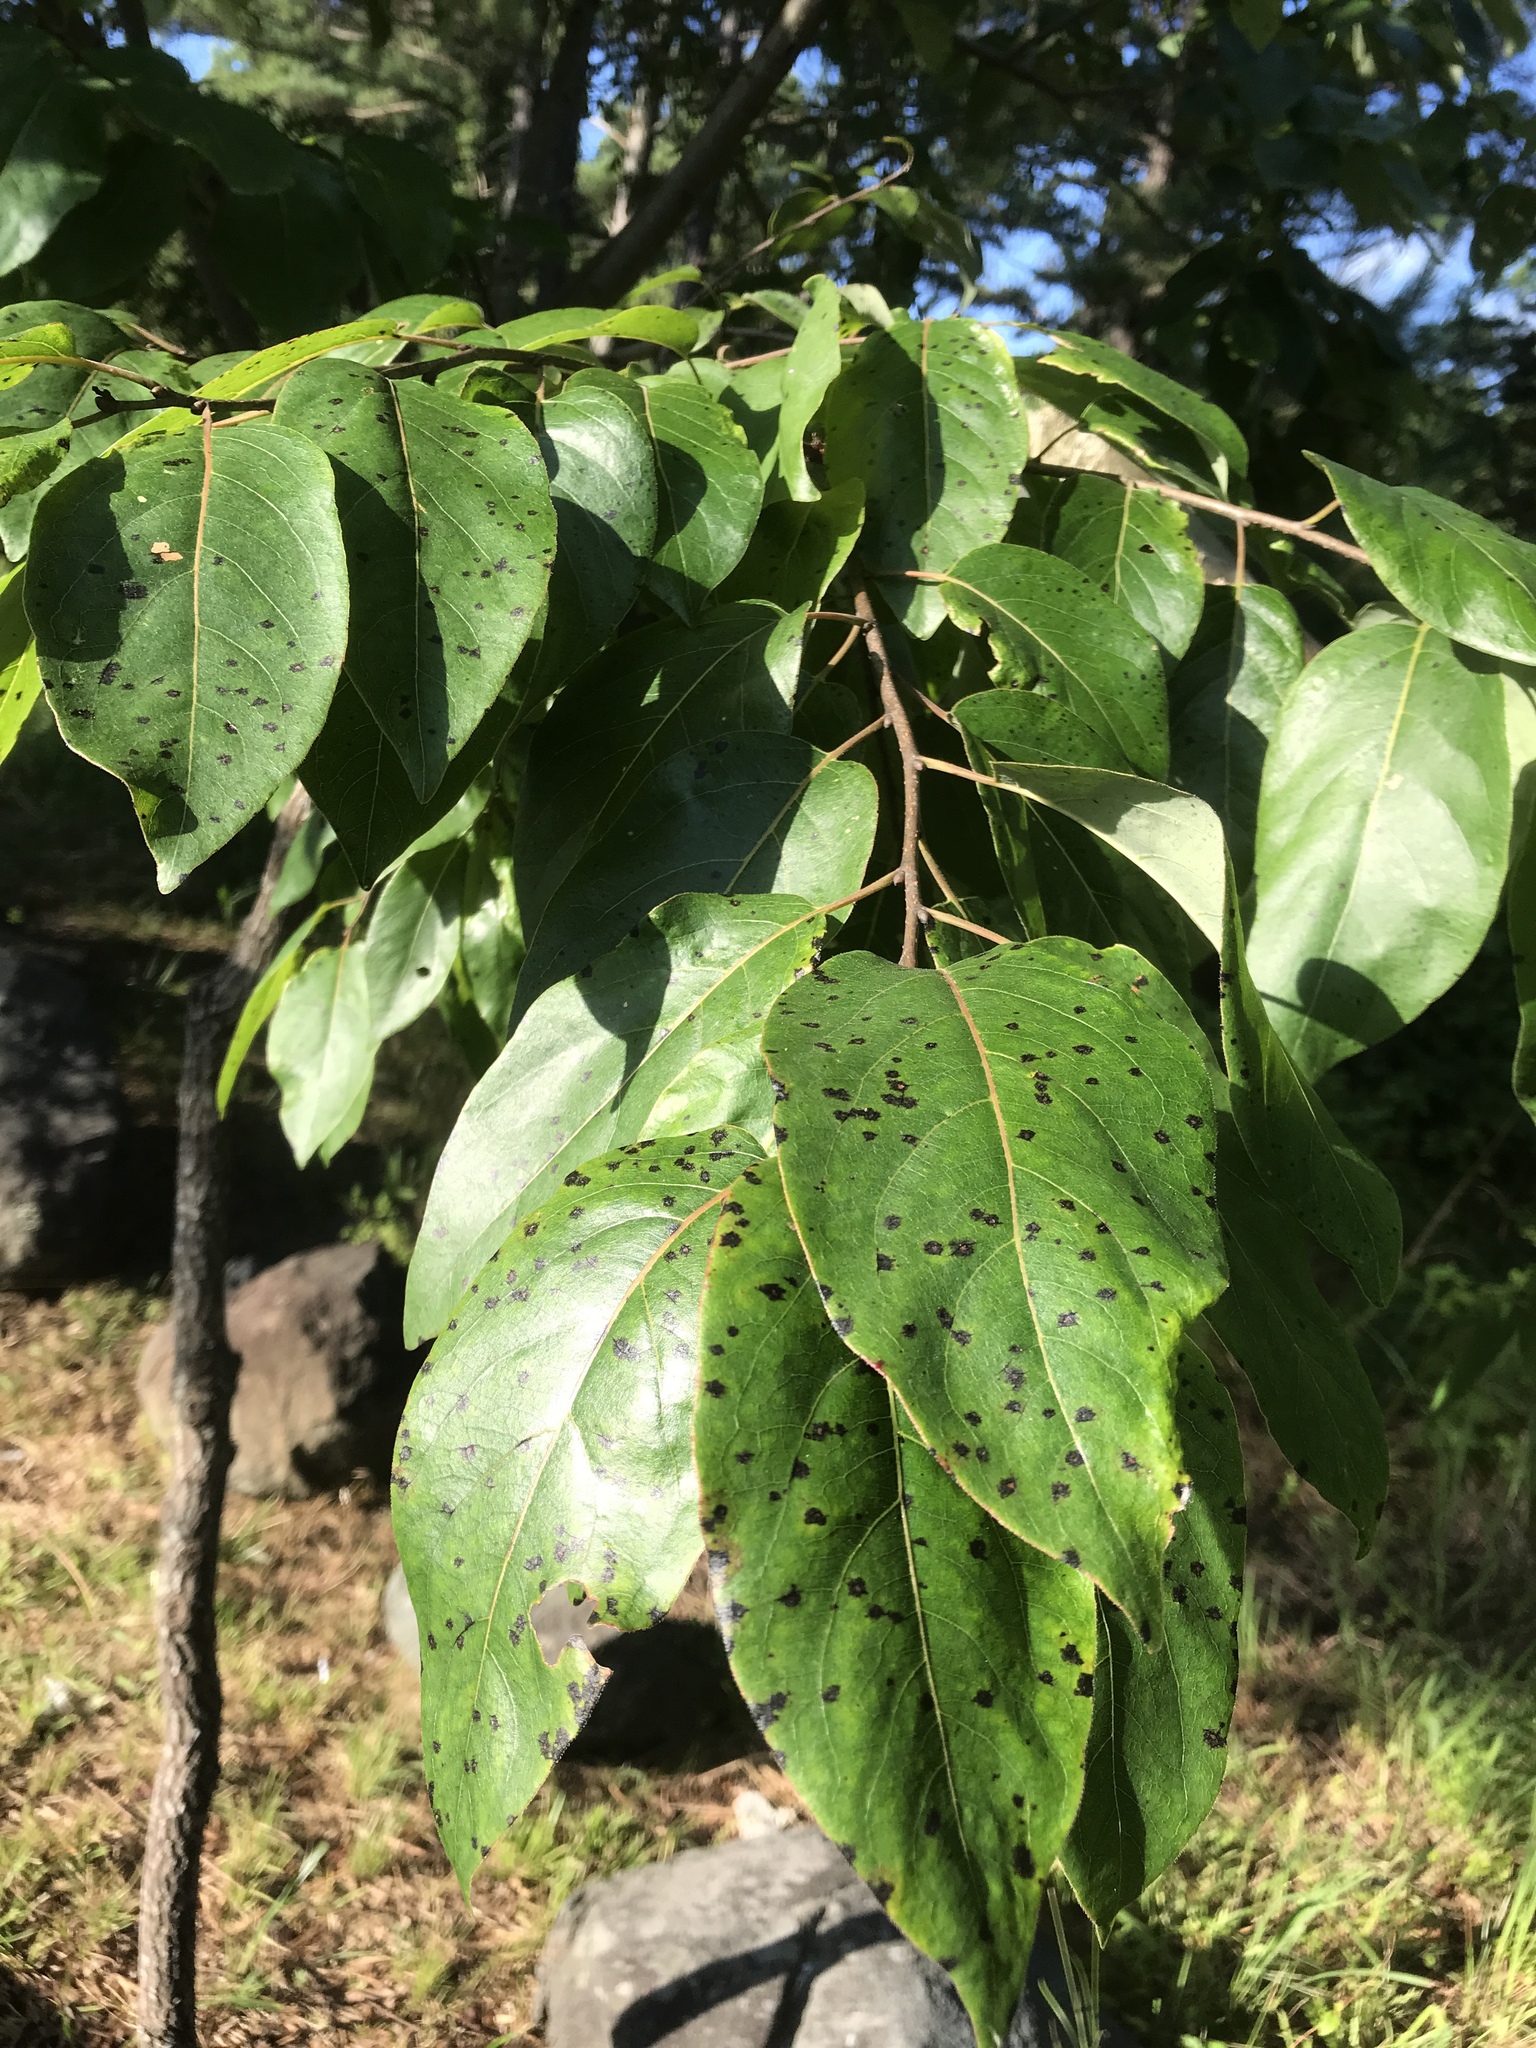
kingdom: Plantae
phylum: Tracheophyta
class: Magnoliopsida
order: Ericales
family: Ebenaceae
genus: Diospyros
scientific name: Diospyros virginiana
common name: Persimmon
